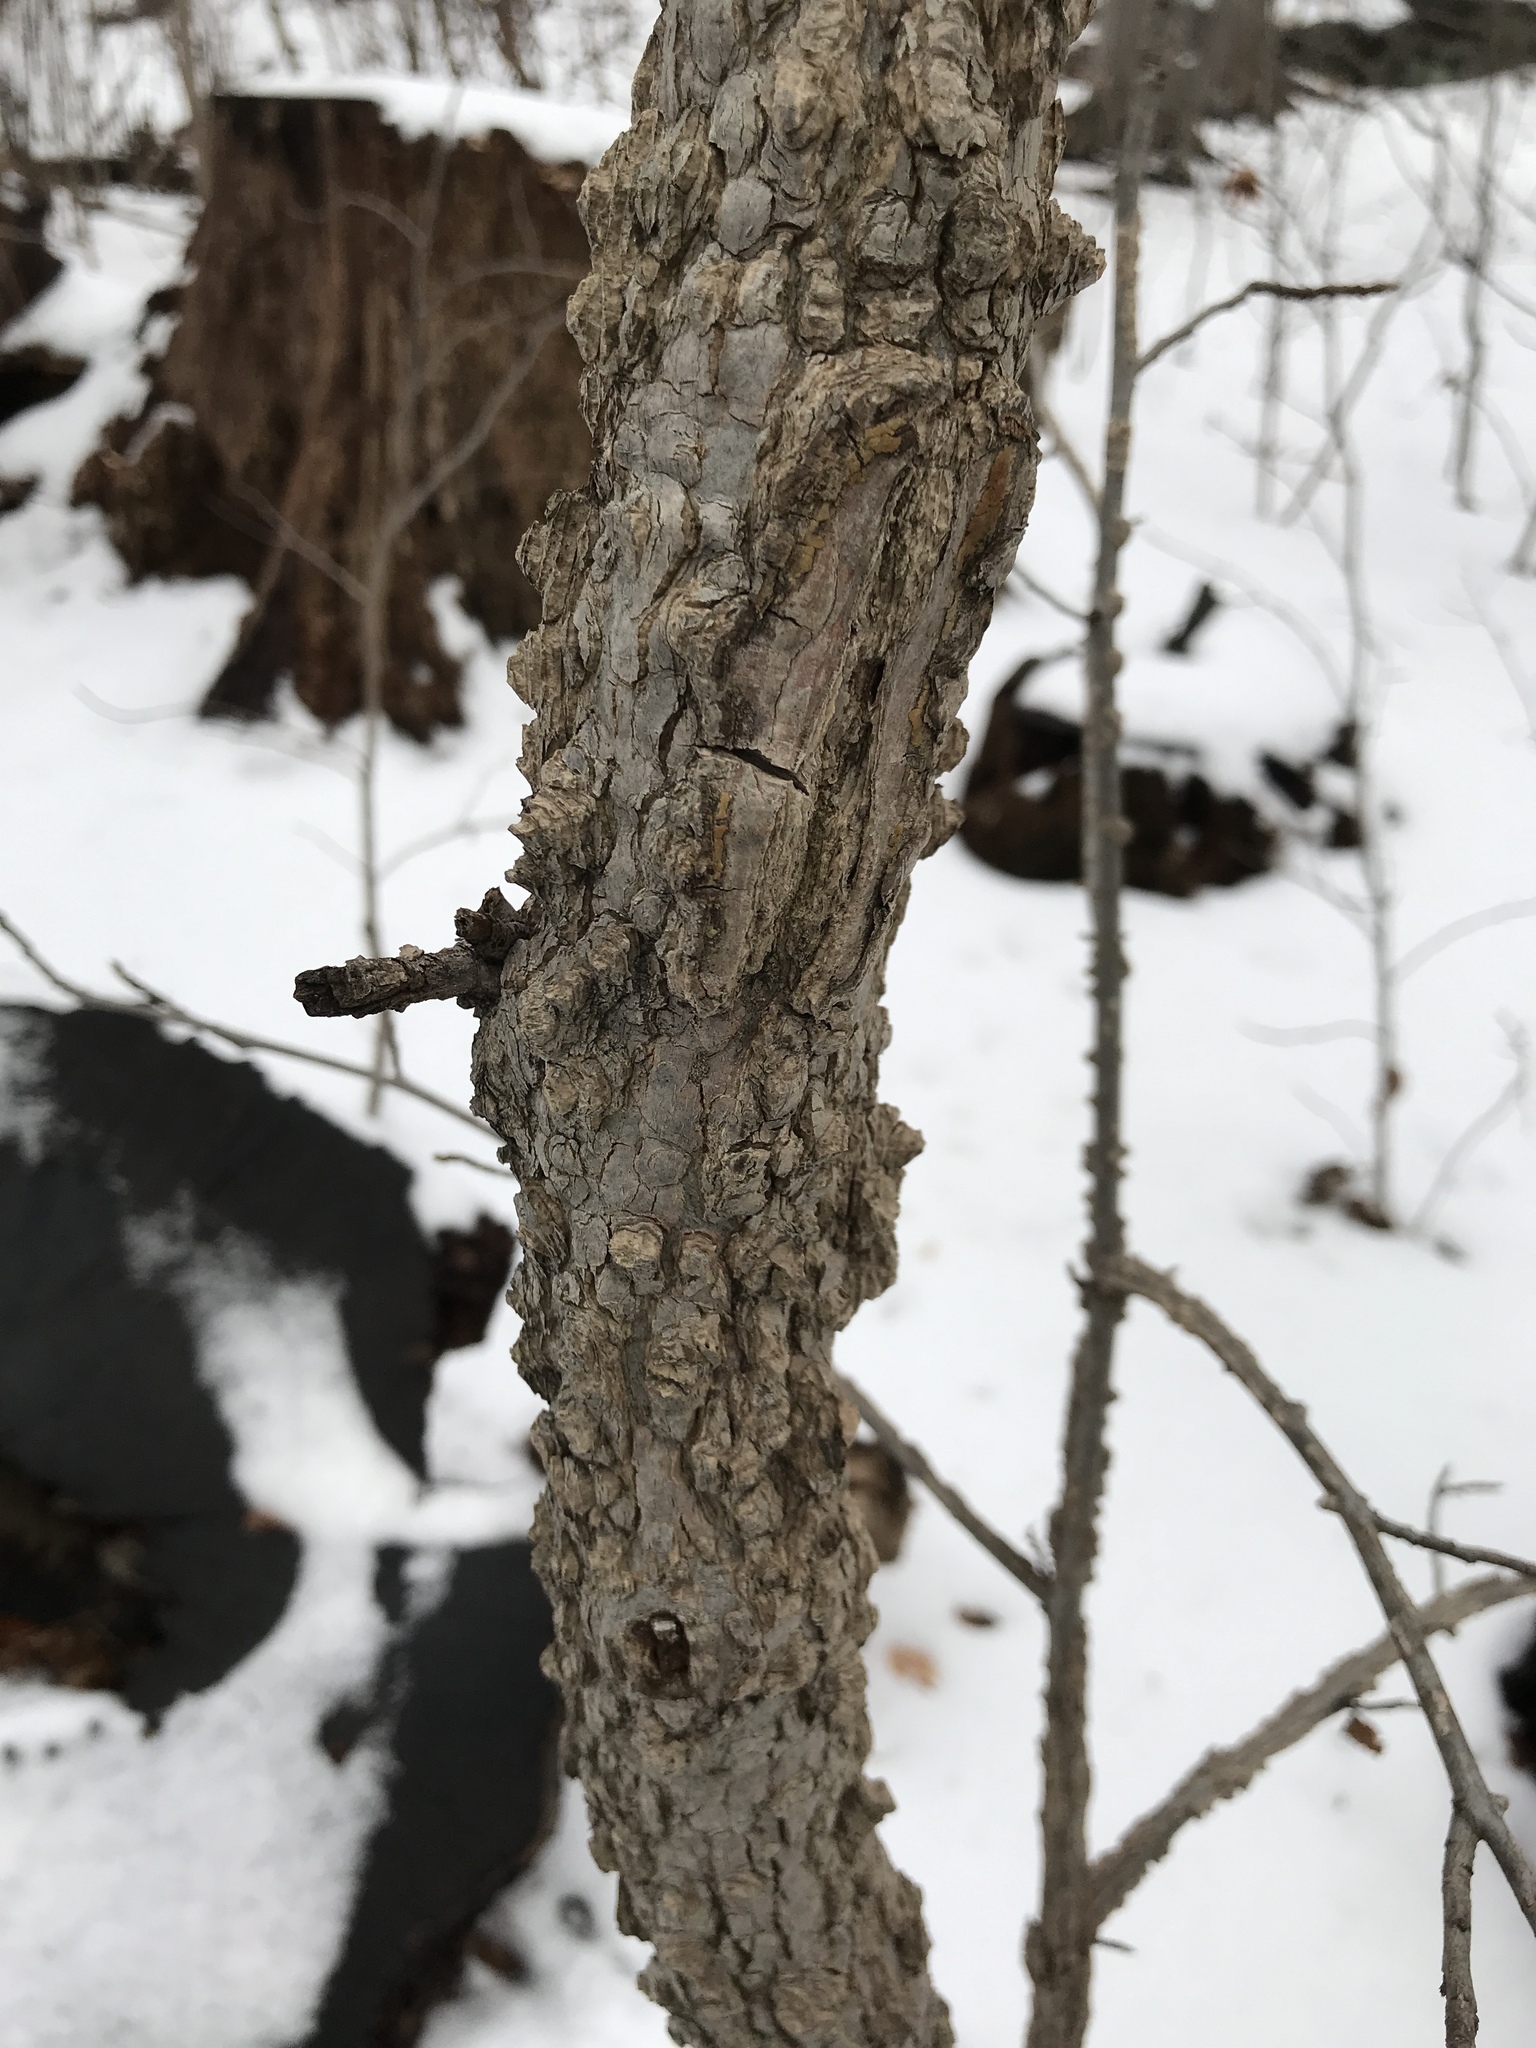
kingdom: Plantae
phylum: Tracheophyta
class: Magnoliopsida
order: Saxifragales
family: Altingiaceae
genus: Liquidambar
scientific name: Liquidambar styraciflua
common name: Sweet gum
